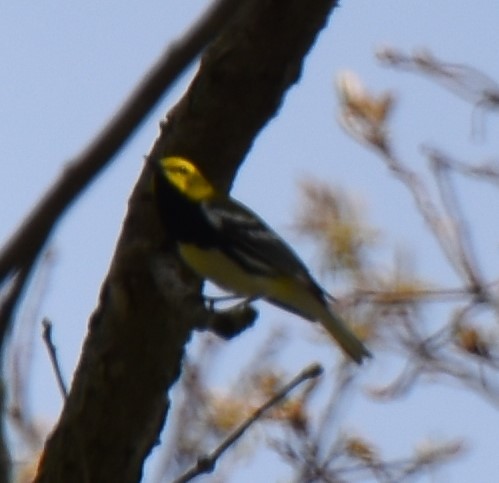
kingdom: Animalia
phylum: Chordata
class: Aves
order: Passeriformes
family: Parulidae
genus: Setophaga
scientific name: Setophaga virens
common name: Black-throated green warbler
